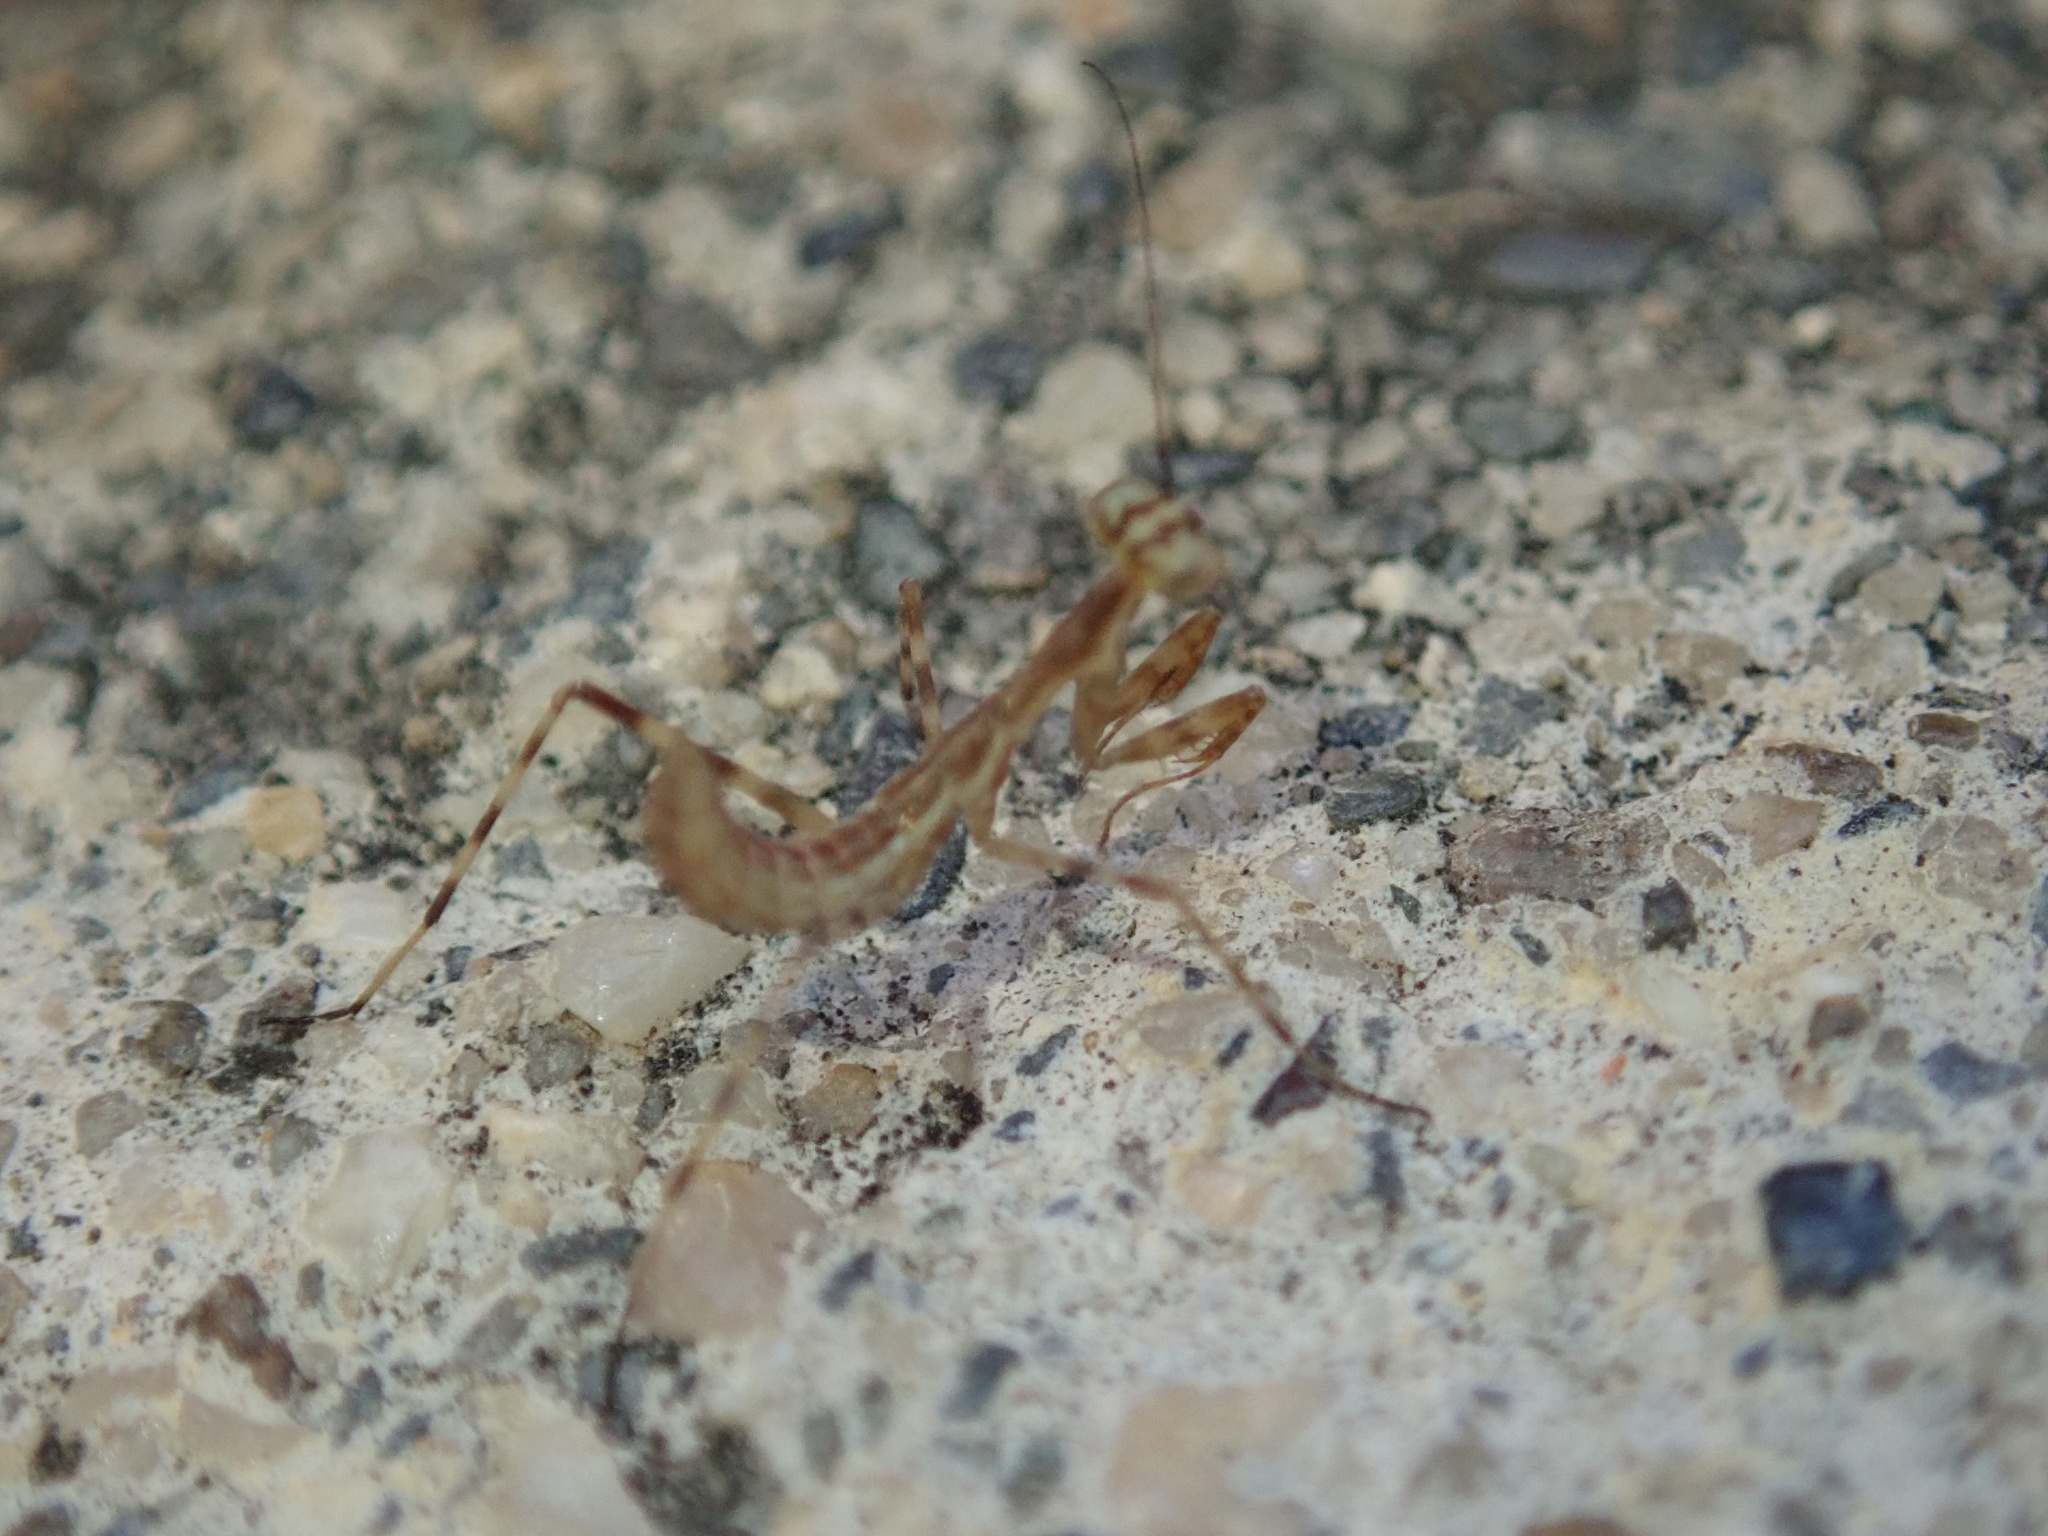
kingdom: Animalia
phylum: Arthropoda
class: Insecta
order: Mantodea
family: Miomantidae
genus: Miomantis
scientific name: Miomantis caffra
